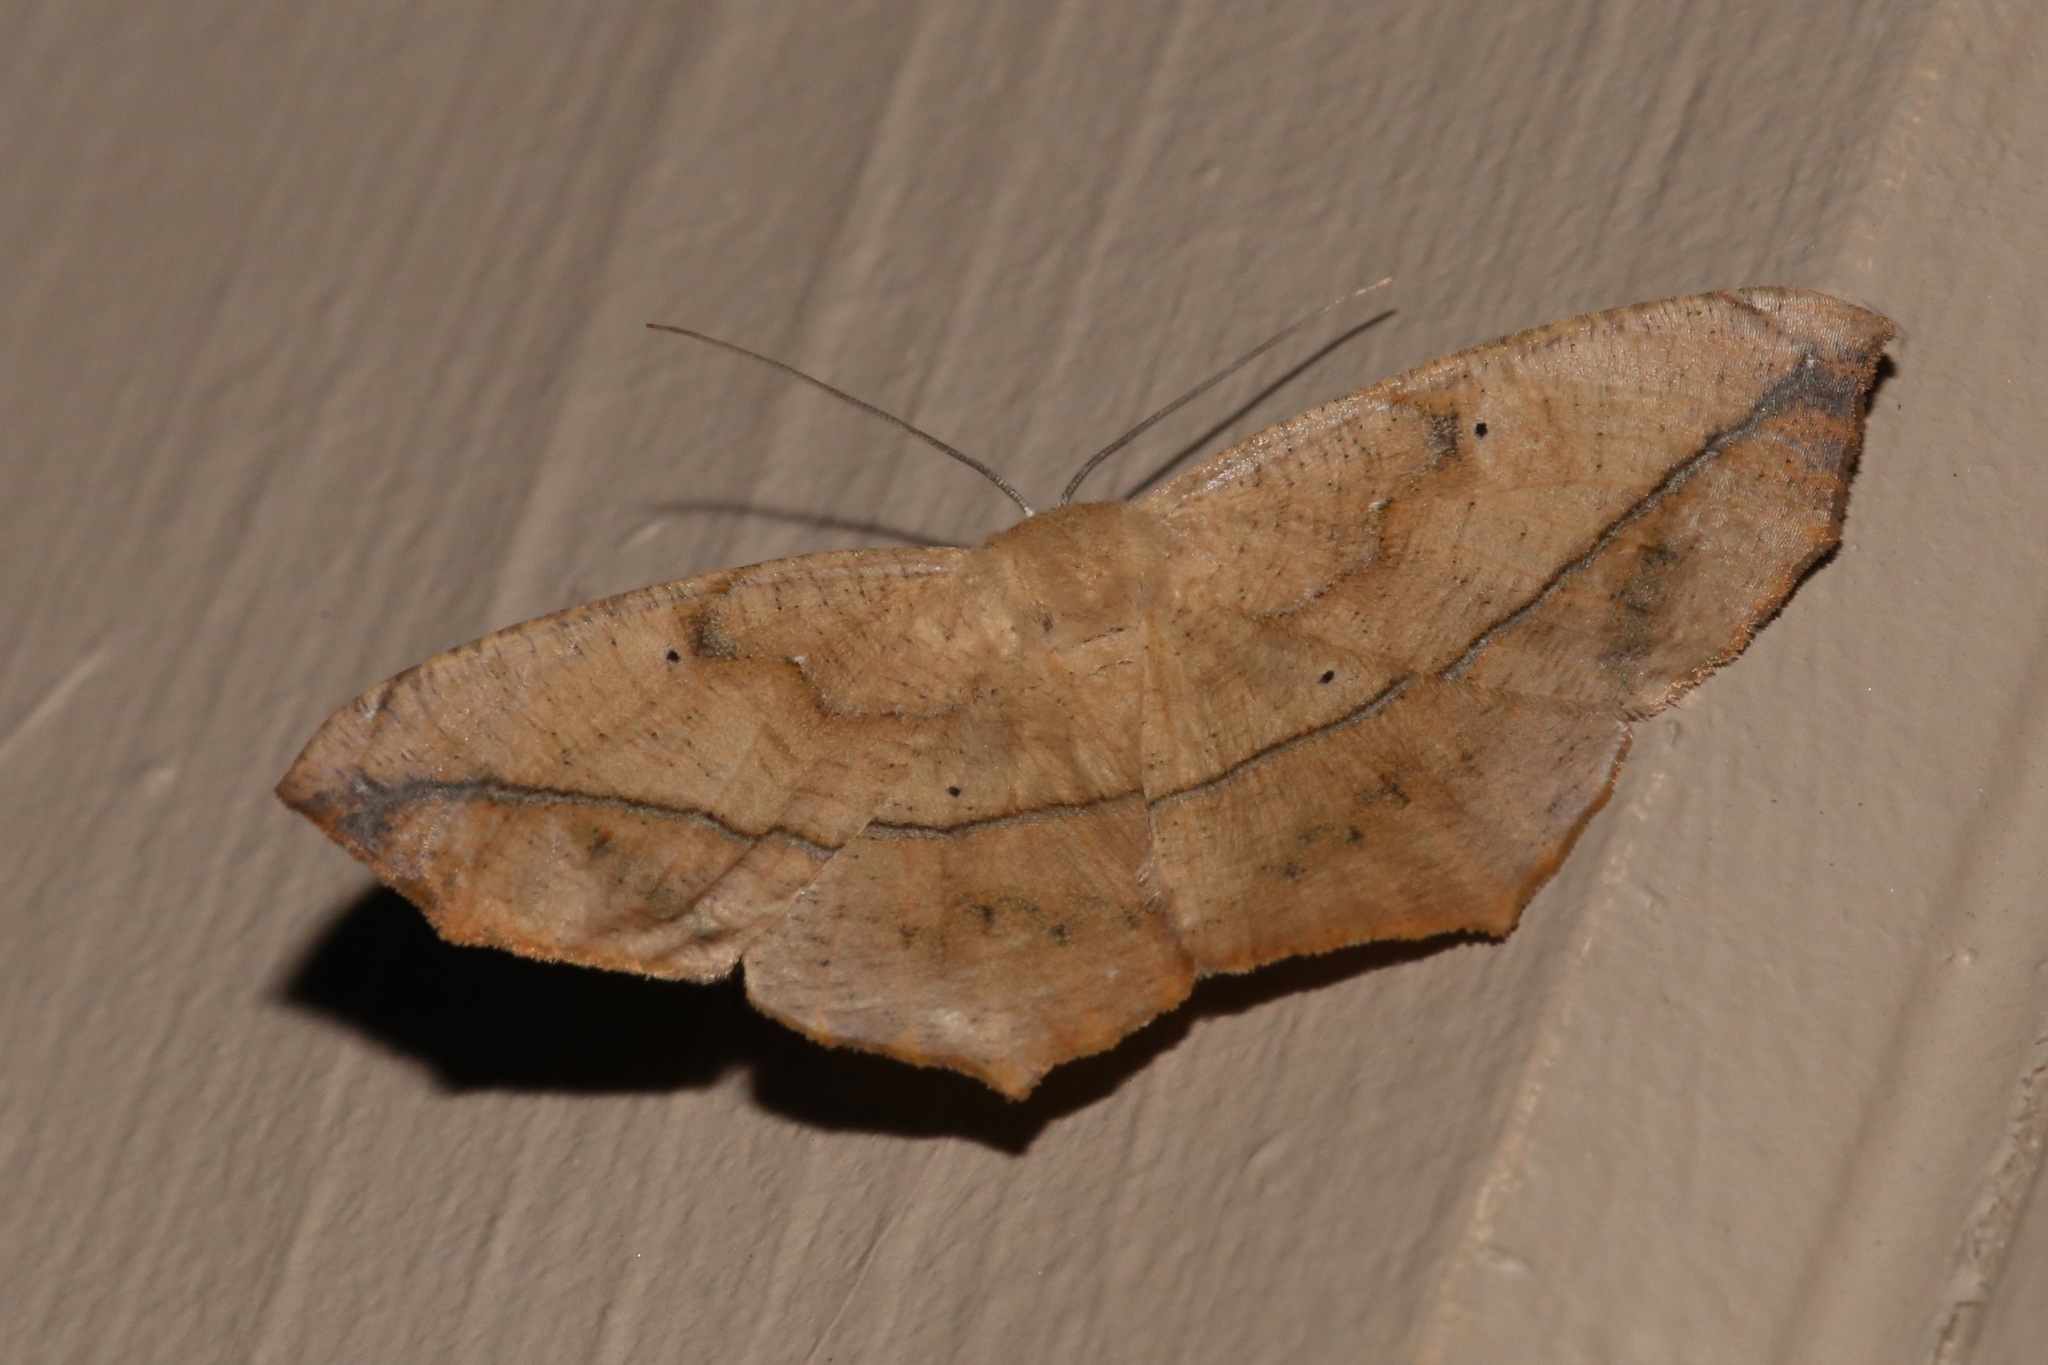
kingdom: Animalia
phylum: Arthropoda
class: Insecta
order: Lepidoptera
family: Geometridae
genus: Prochoerodes
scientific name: Prochoerodes lineola
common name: Large maple spanworm
